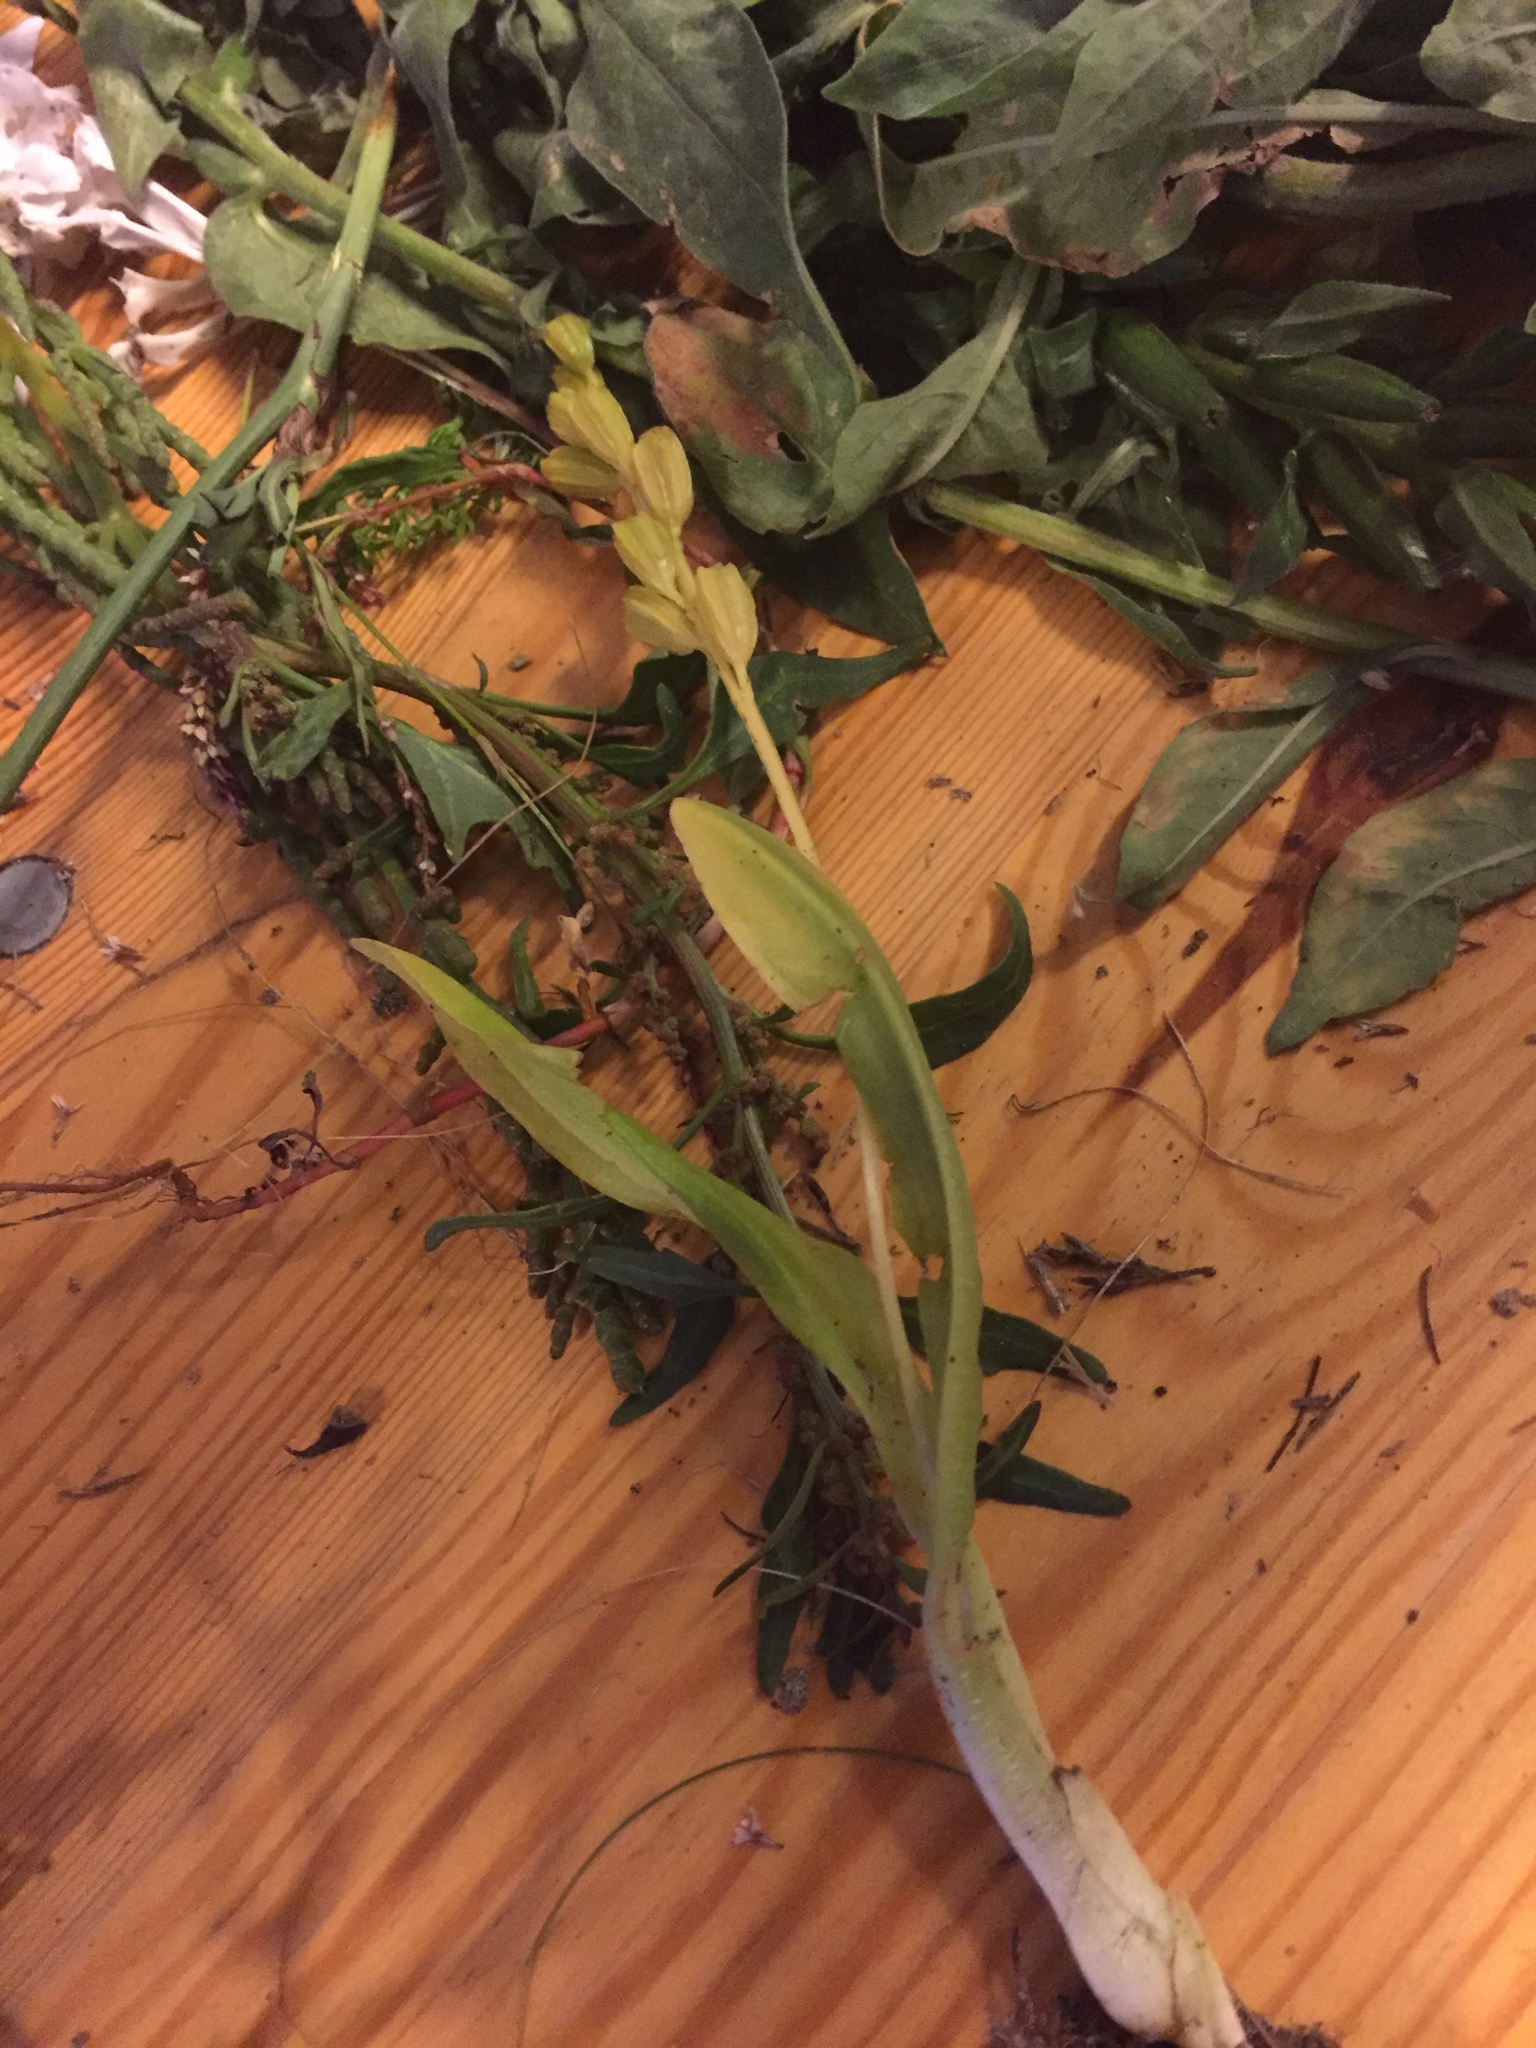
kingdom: Animalia
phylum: Arthropoda
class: Insecta
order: Coleoptera
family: Curculionidae
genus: Liparis
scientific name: Liparis loeselii
